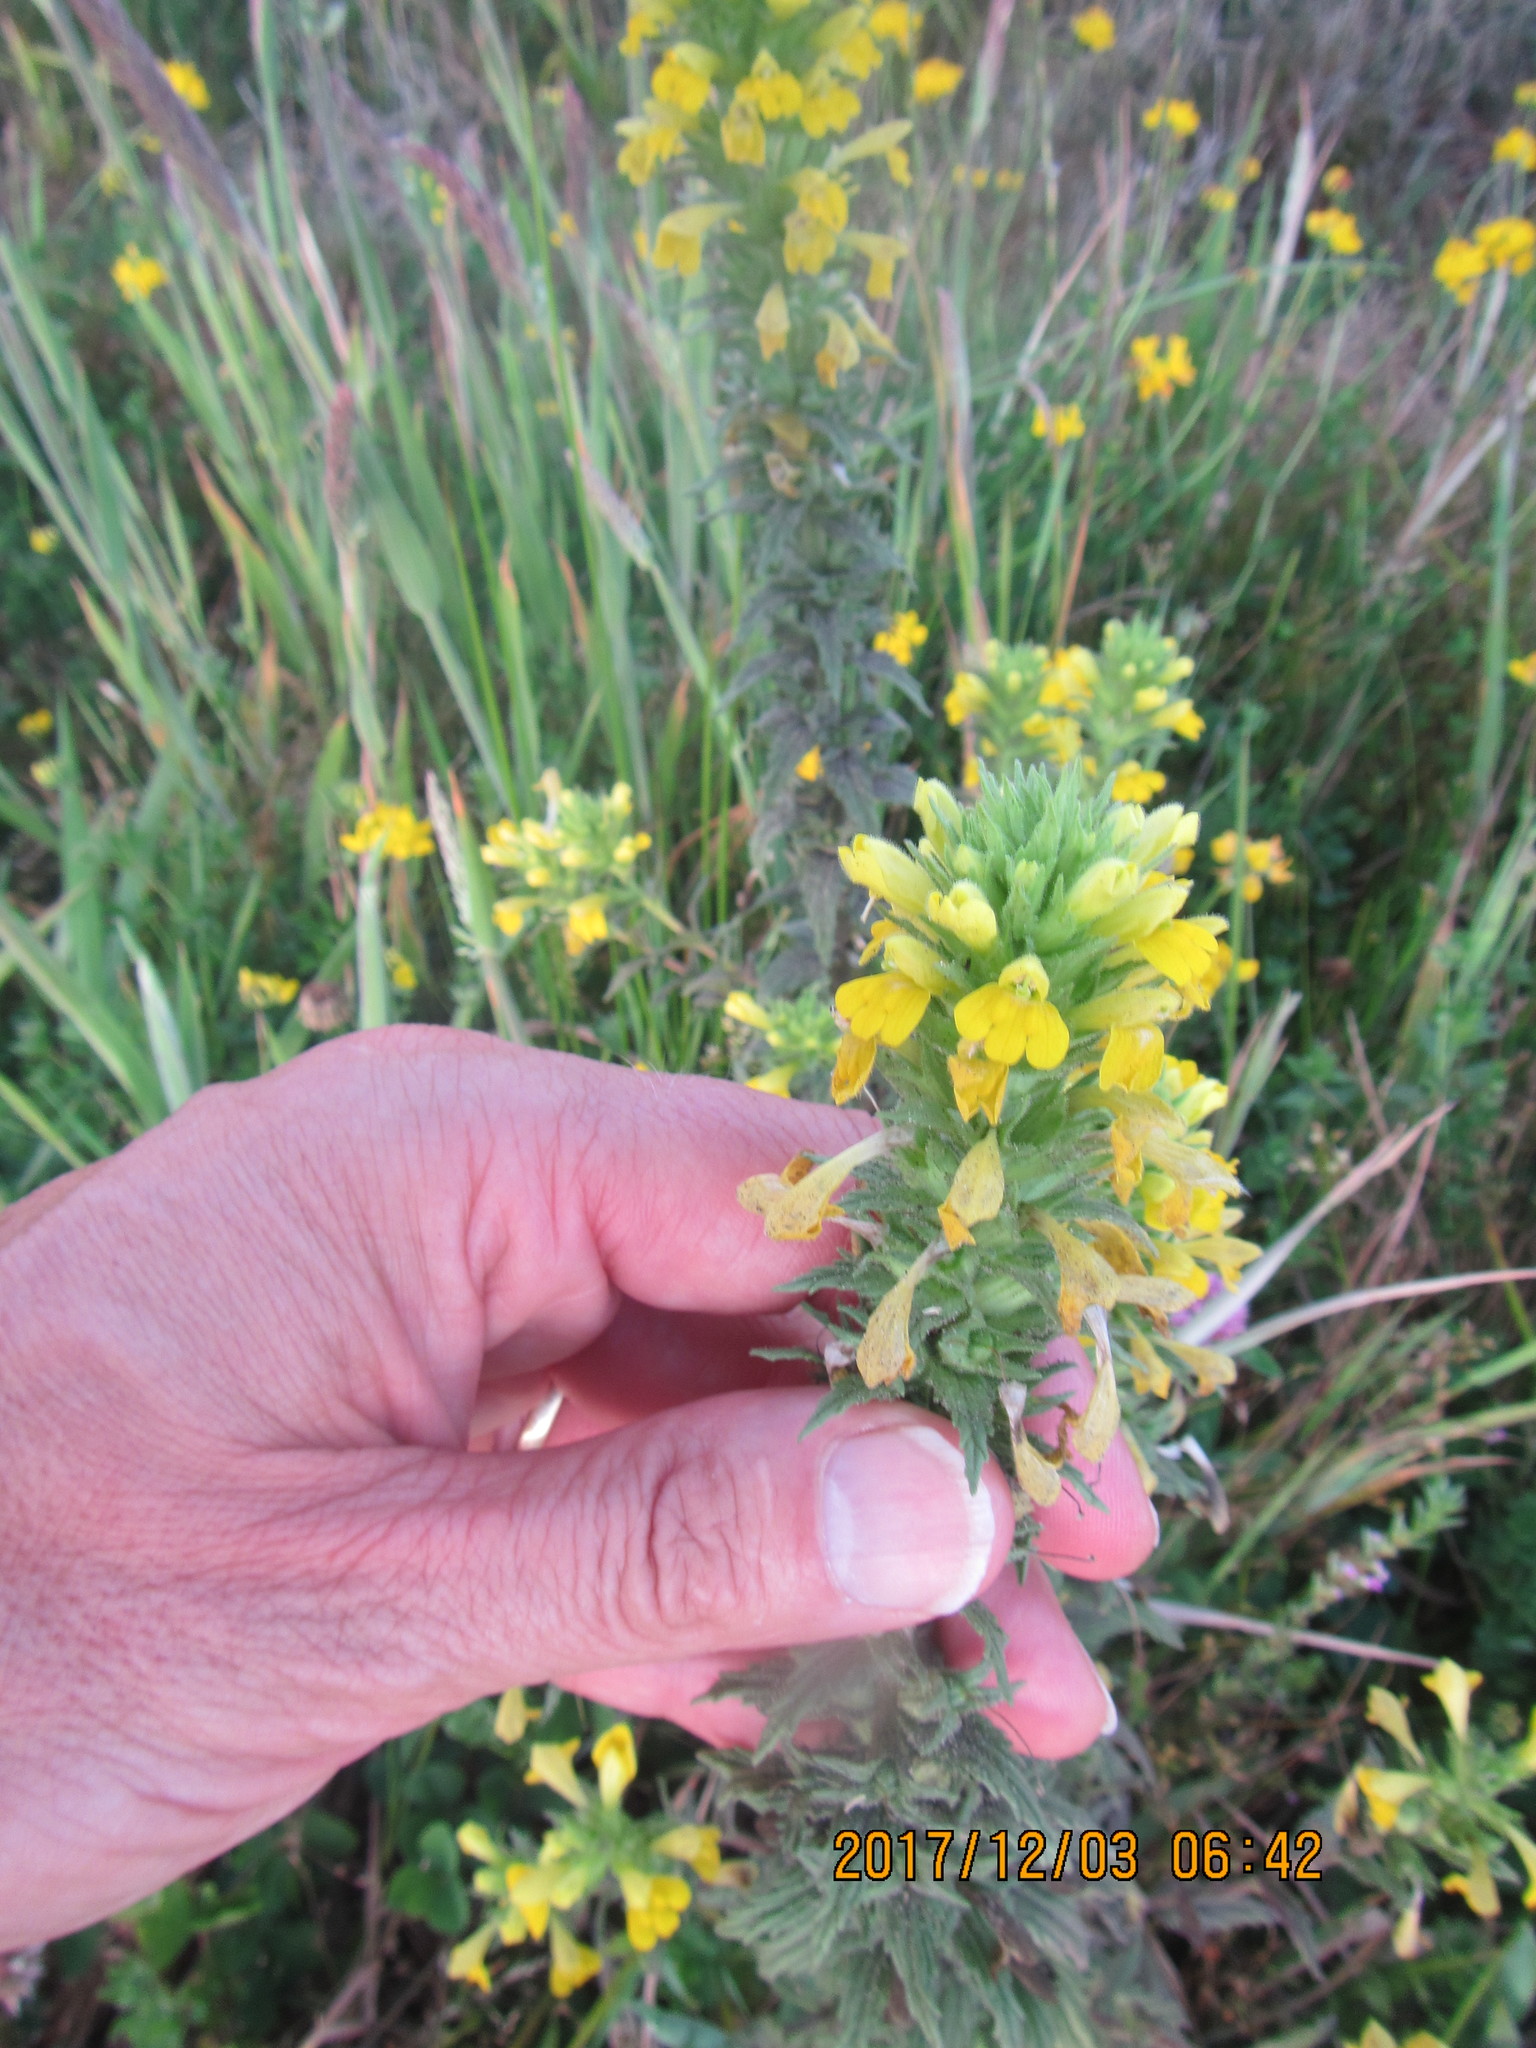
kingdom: Plantae
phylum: Tracheophyta
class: Magnoliopsida
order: Lamiales
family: Orobanchaceae
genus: Bellardia
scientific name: Bellardia viscosa
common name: Sticky parentucellia
